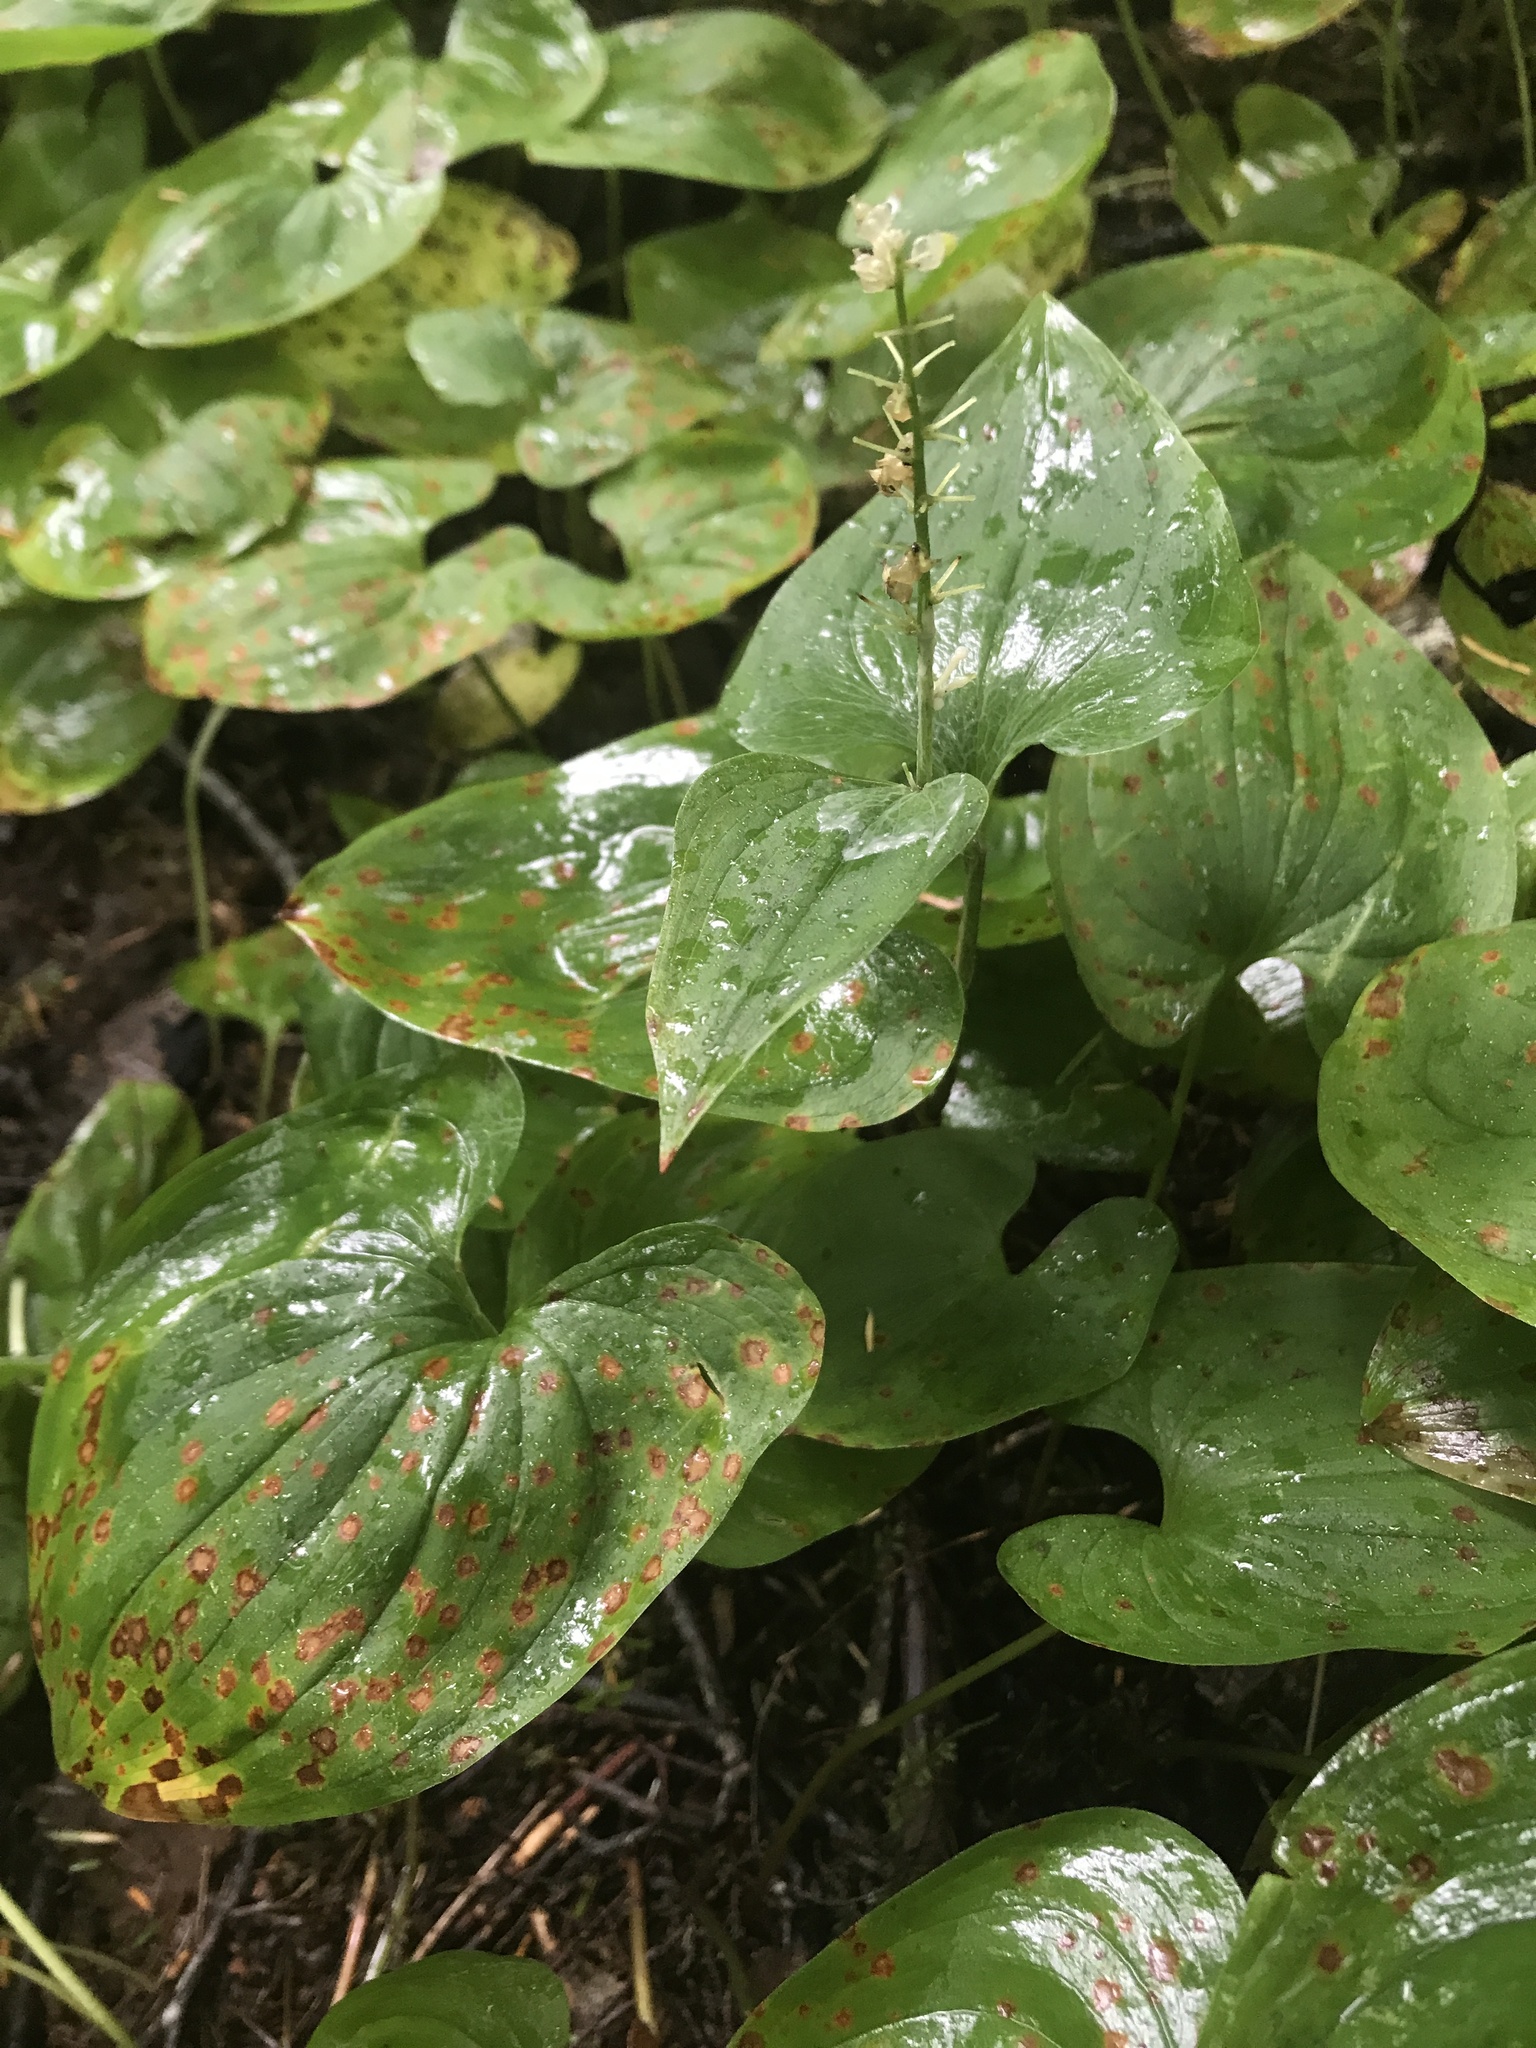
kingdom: Plantae
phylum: Tracheophyta
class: Liliopsida
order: Asparagales
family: Asparagaceae
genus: Maianthemum
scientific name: Maianthemum dilatatum
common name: False lily-of-the-valley
